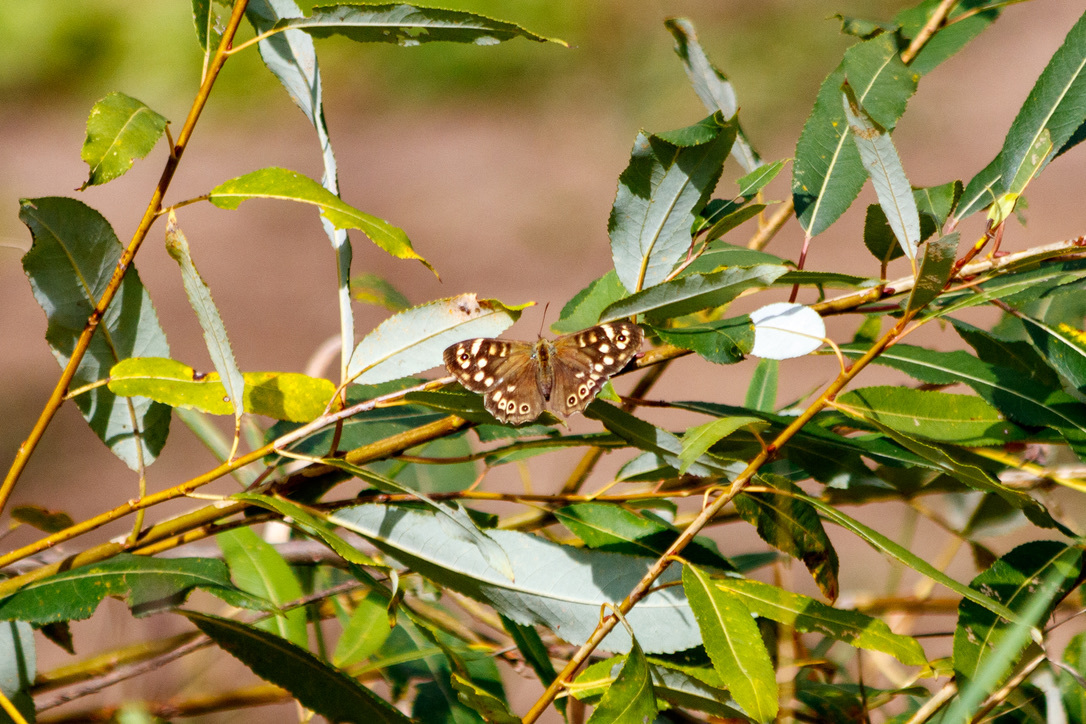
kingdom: Animalia
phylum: Arthropoda
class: Insecta
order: Lepidoptera
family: Nymphalidae
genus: Pararge
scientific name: Pararge aegeria
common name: Speckled wood
